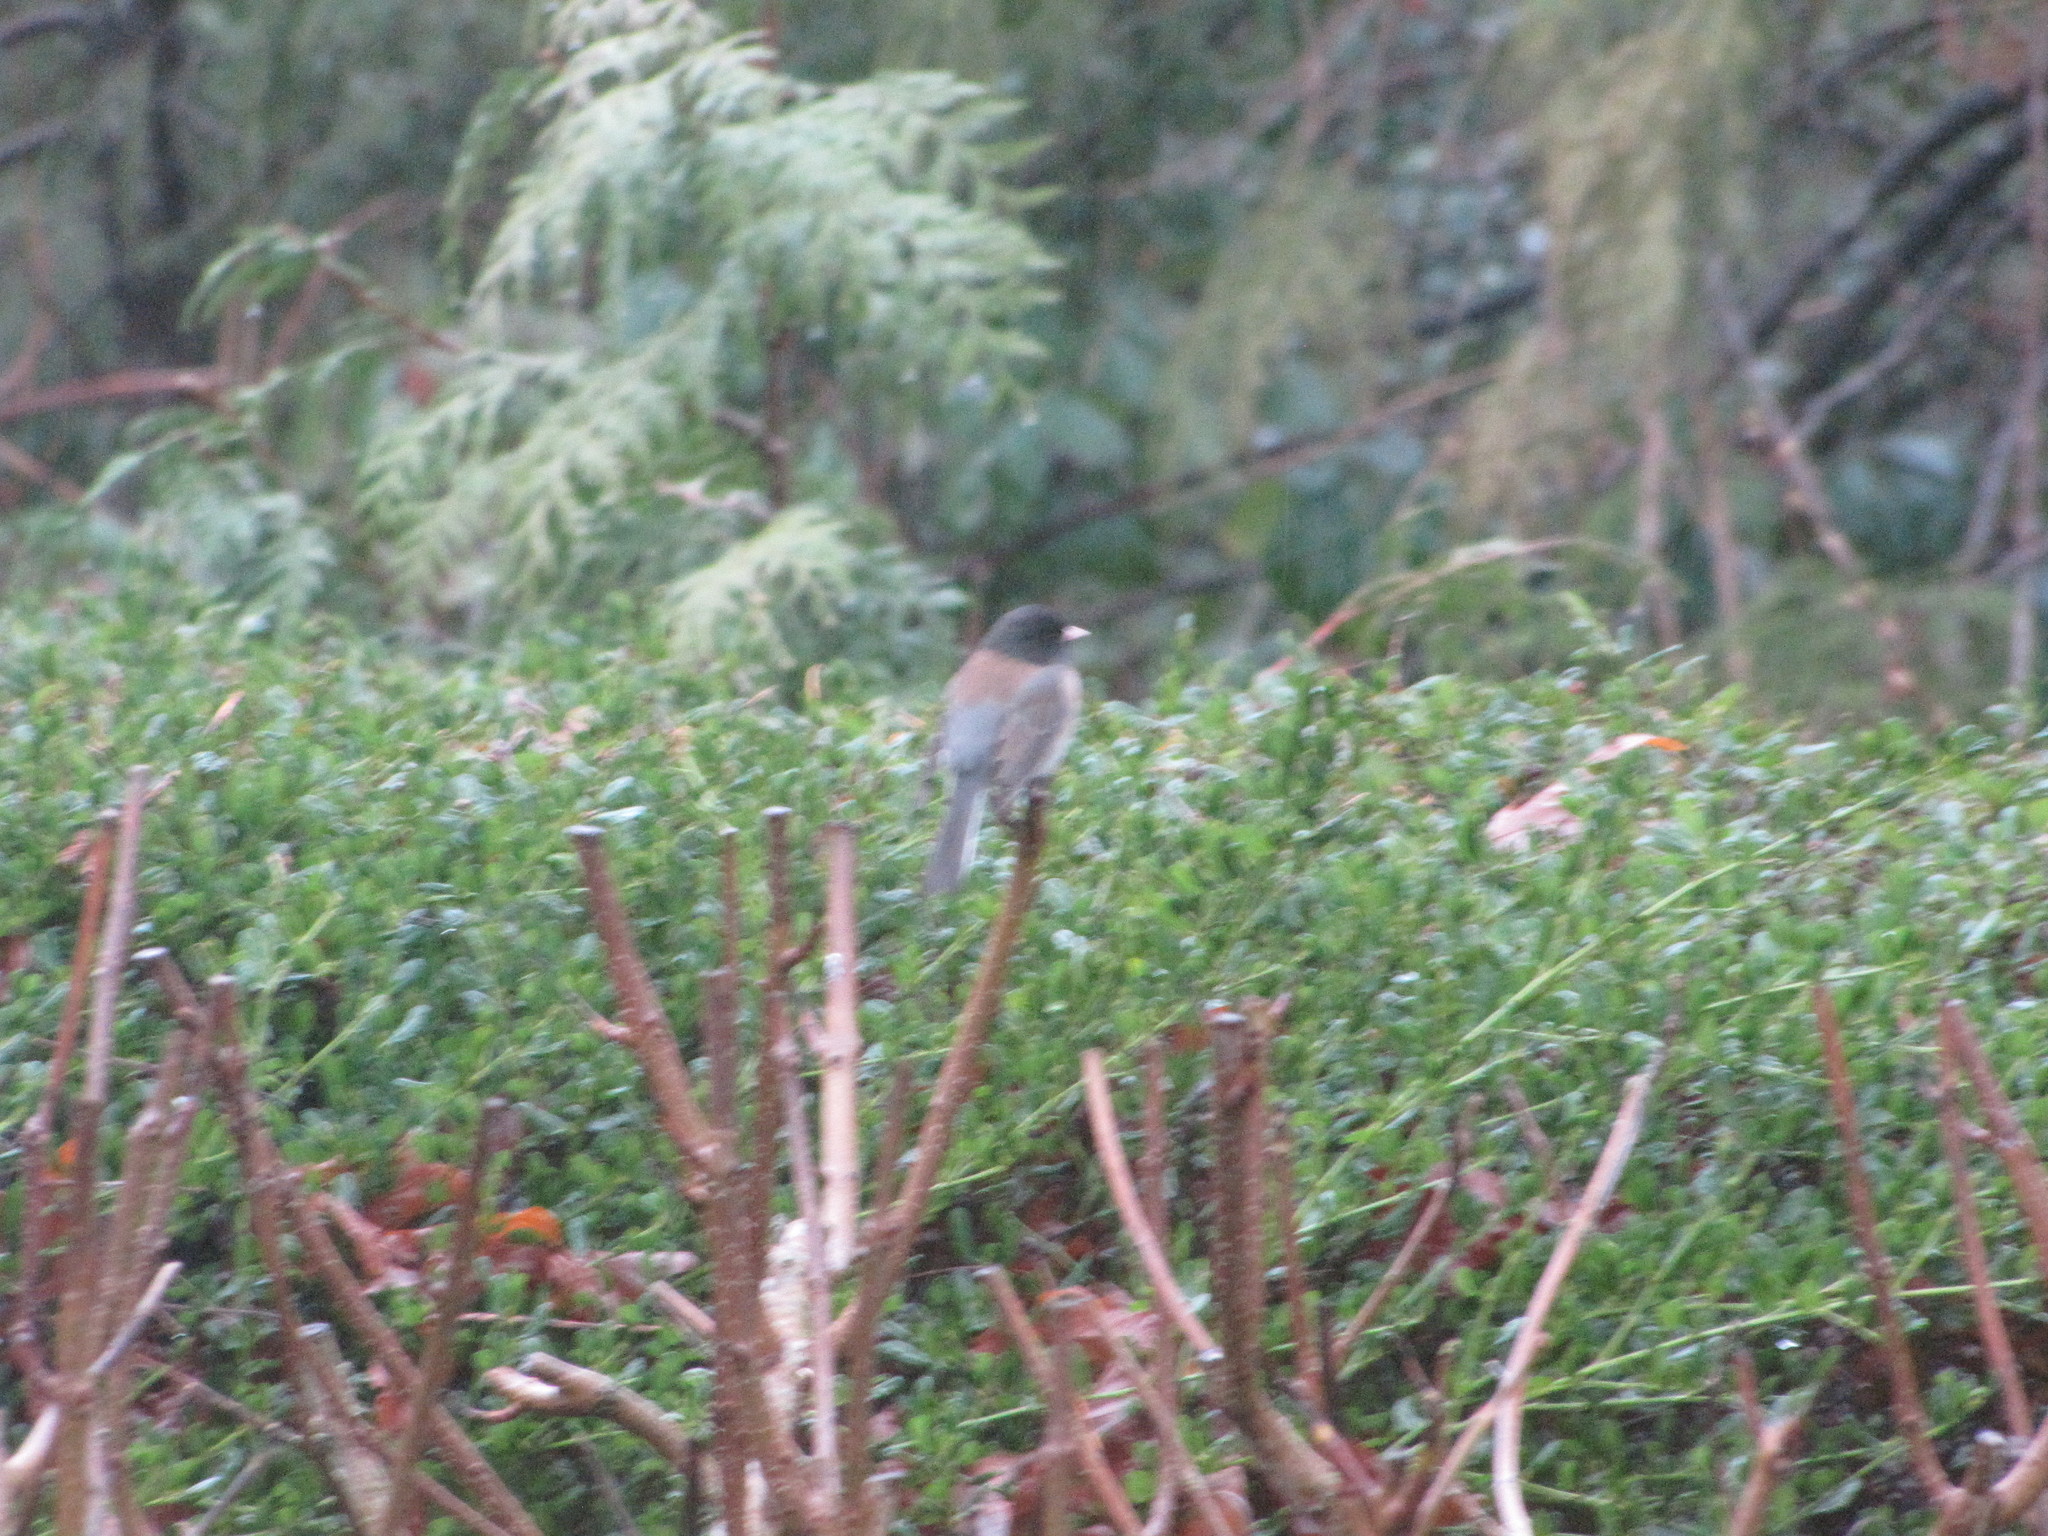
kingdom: Animalia
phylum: Chordata
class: Aves
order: Passeriformes
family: Passerellidae
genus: Junco
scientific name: Junco hyemalis
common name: Dark-eyed junco
